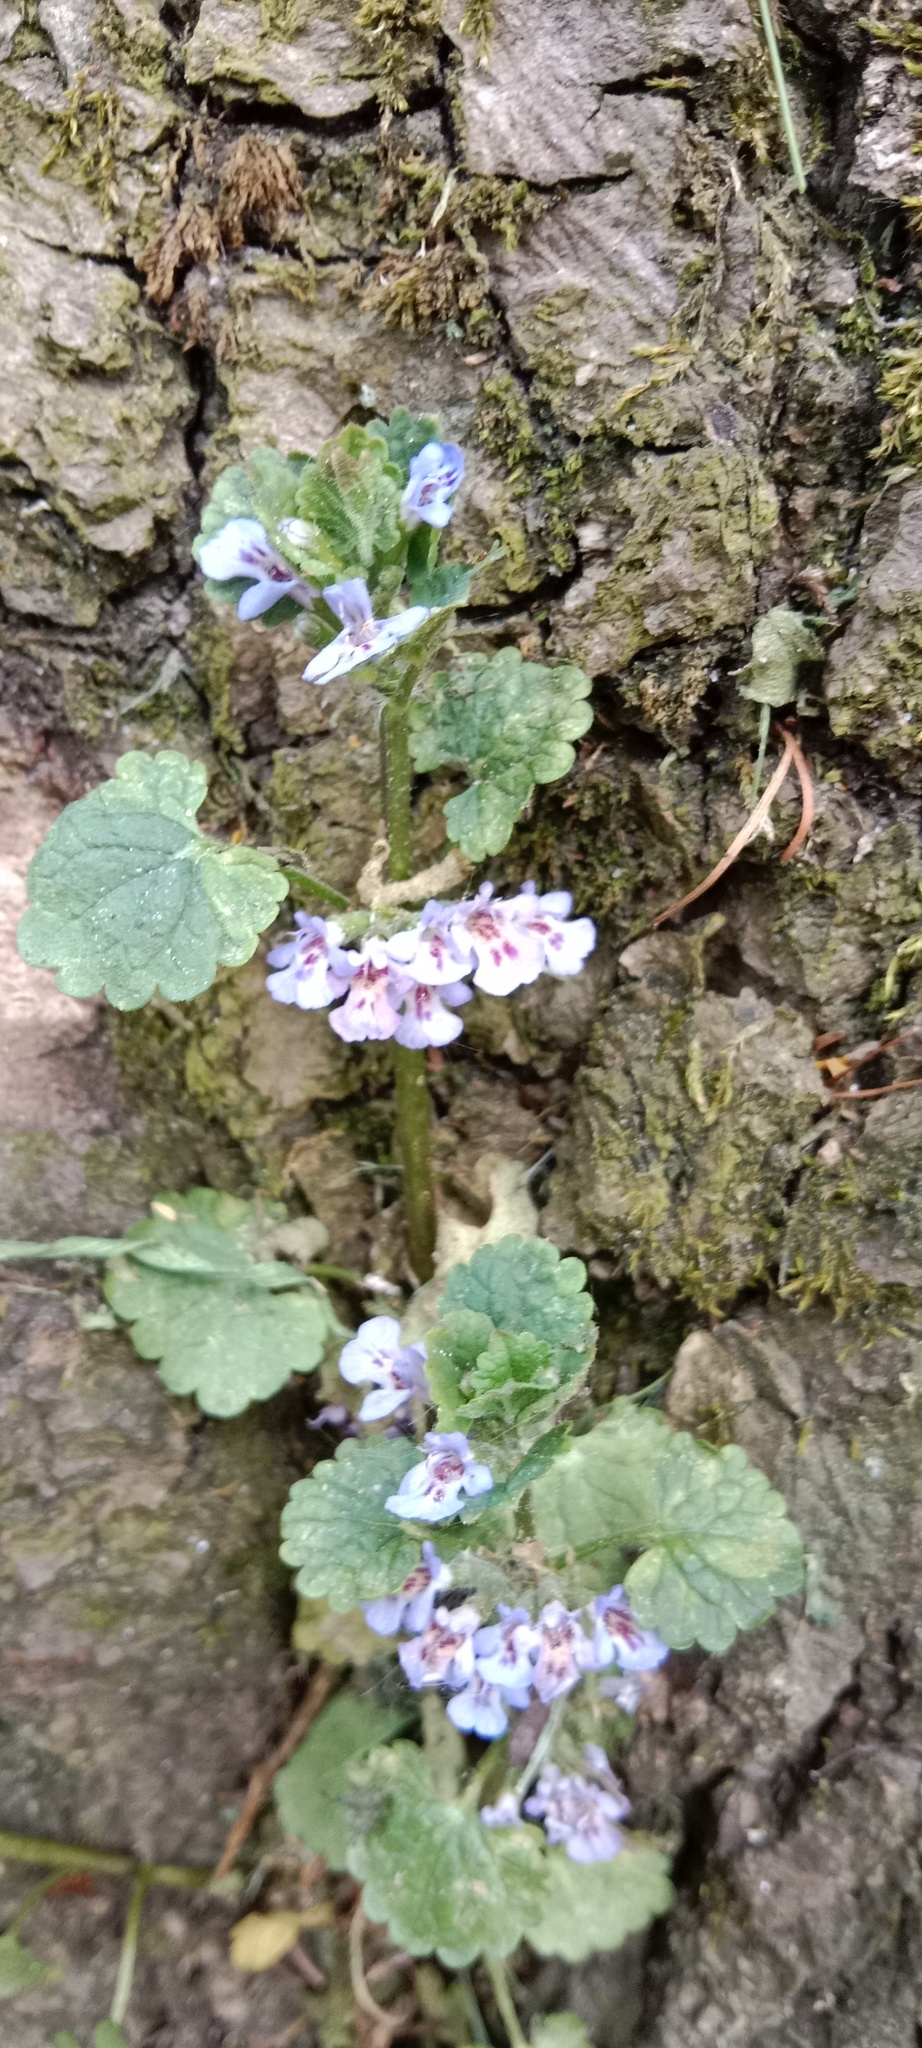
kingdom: Plantae
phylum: Tracheophyta
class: Magnoliopsida
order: Lamiales
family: Lamiaceae
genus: Glechoma
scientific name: Glechoma hederacea
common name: Ground ivy
